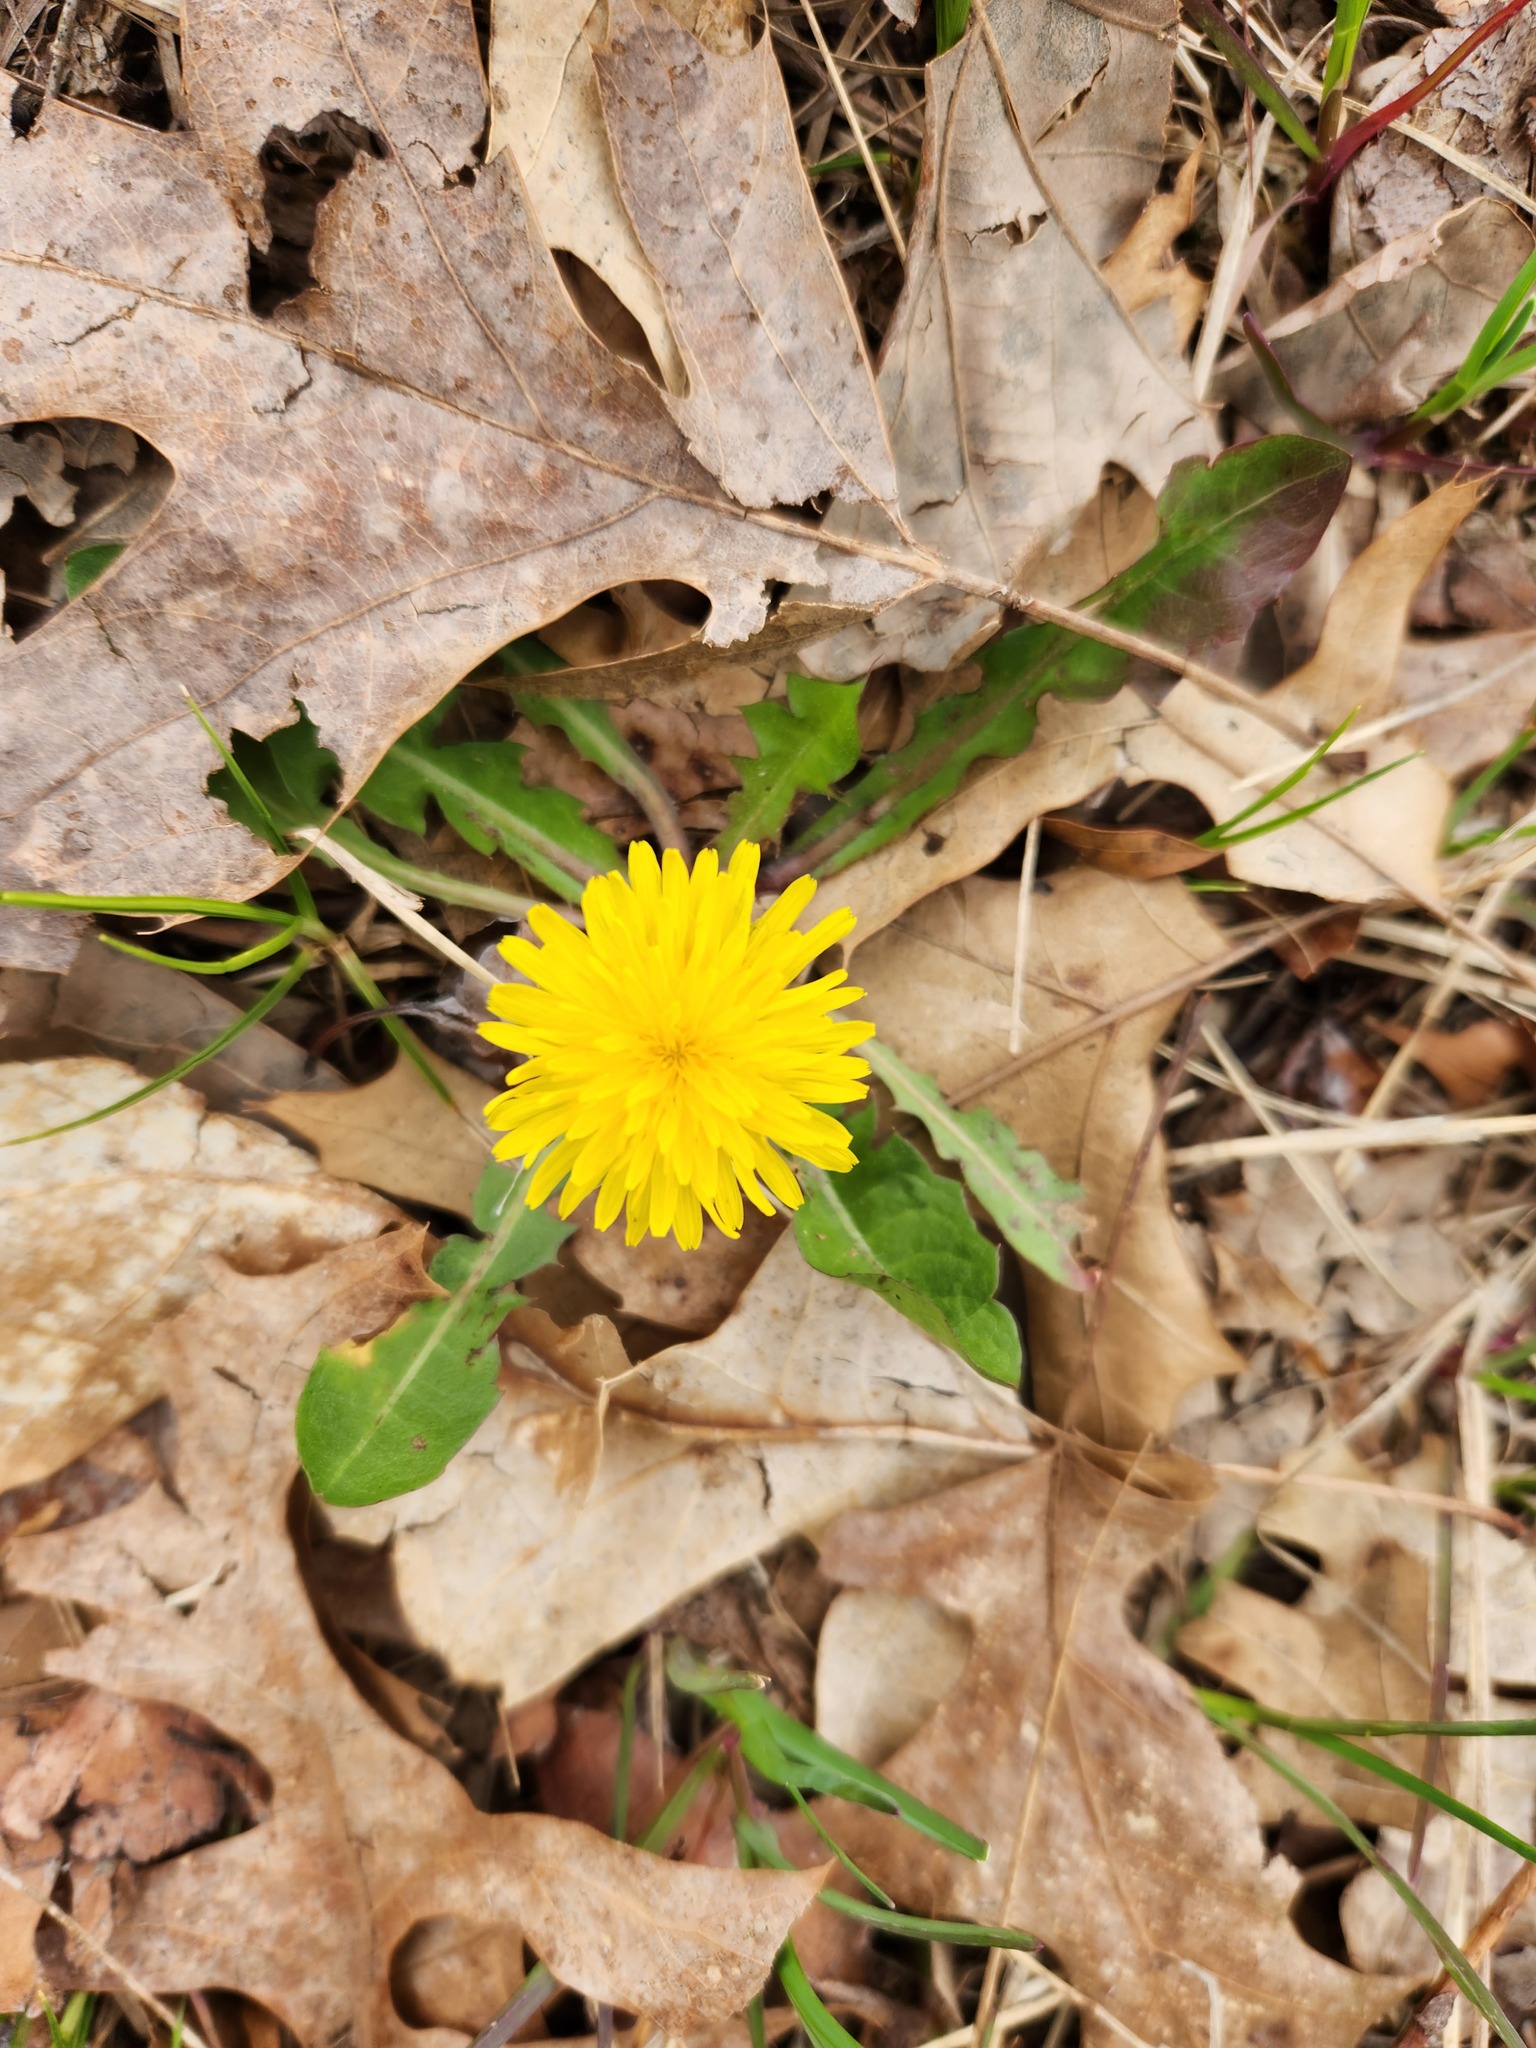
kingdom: Plantae
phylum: Tracheophyta
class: Magnoliopsida
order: Asterales
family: Asteraceae
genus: Taraxacum
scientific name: Taraxacum officinale
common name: Common dandelion
